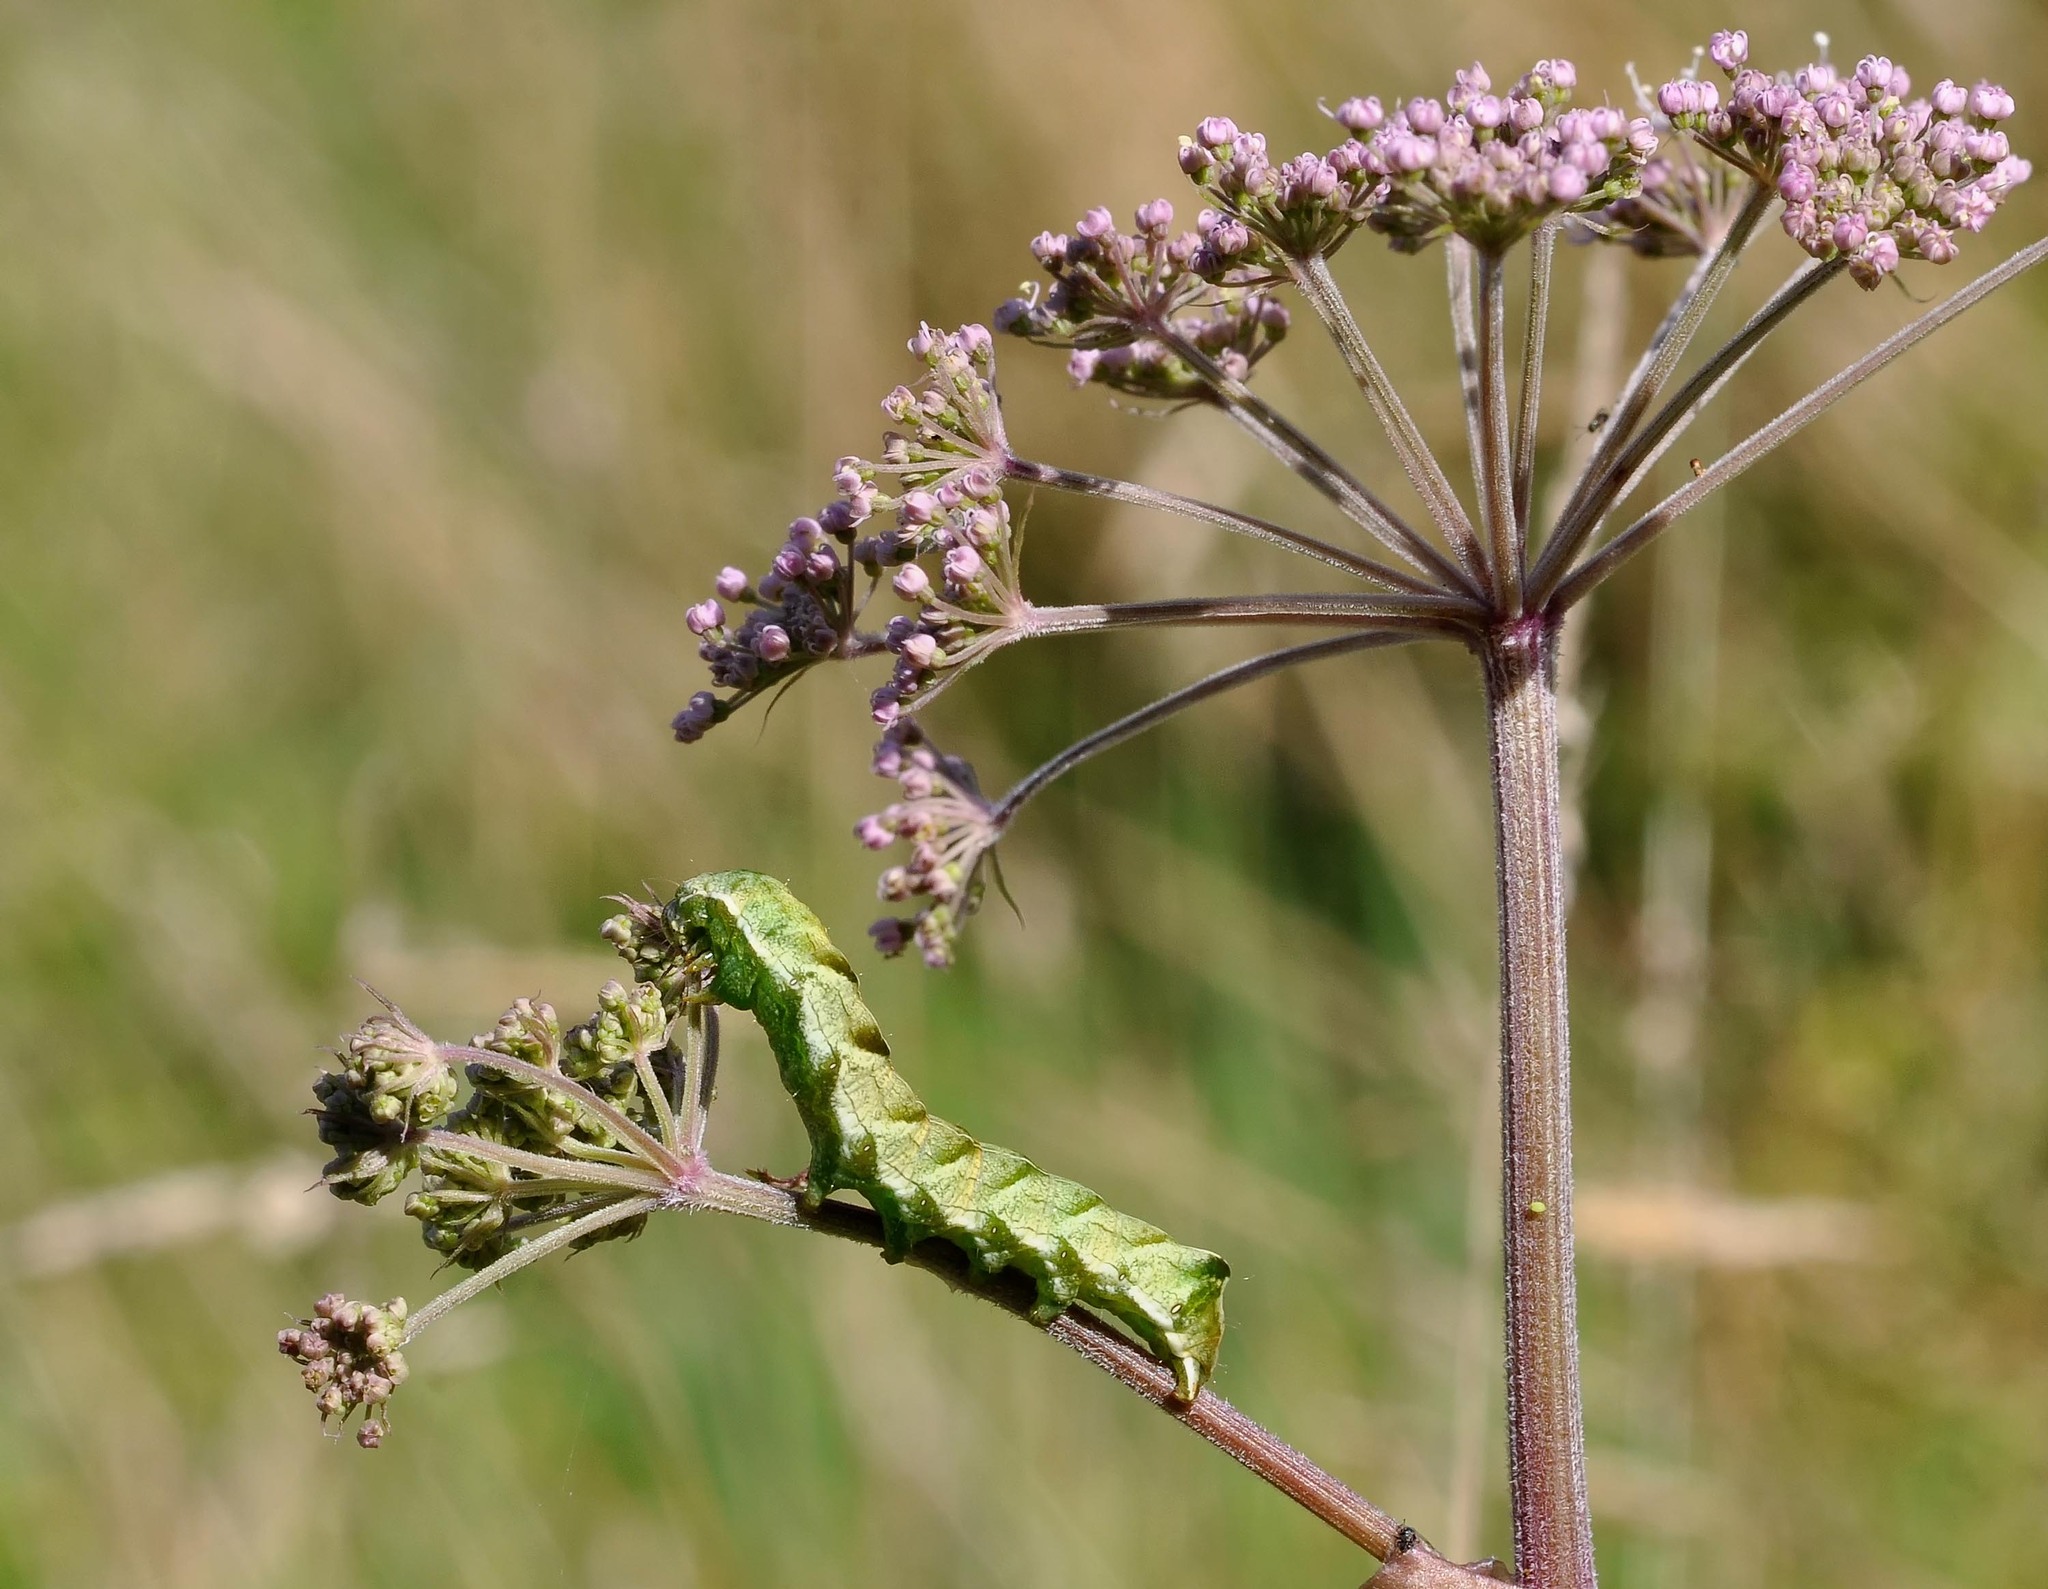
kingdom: Animalia
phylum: Arthropoda
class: Insecta
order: Lepidoptera
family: Noctuidae
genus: Melanchra
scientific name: Melanchra persicariae
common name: Dot moth
